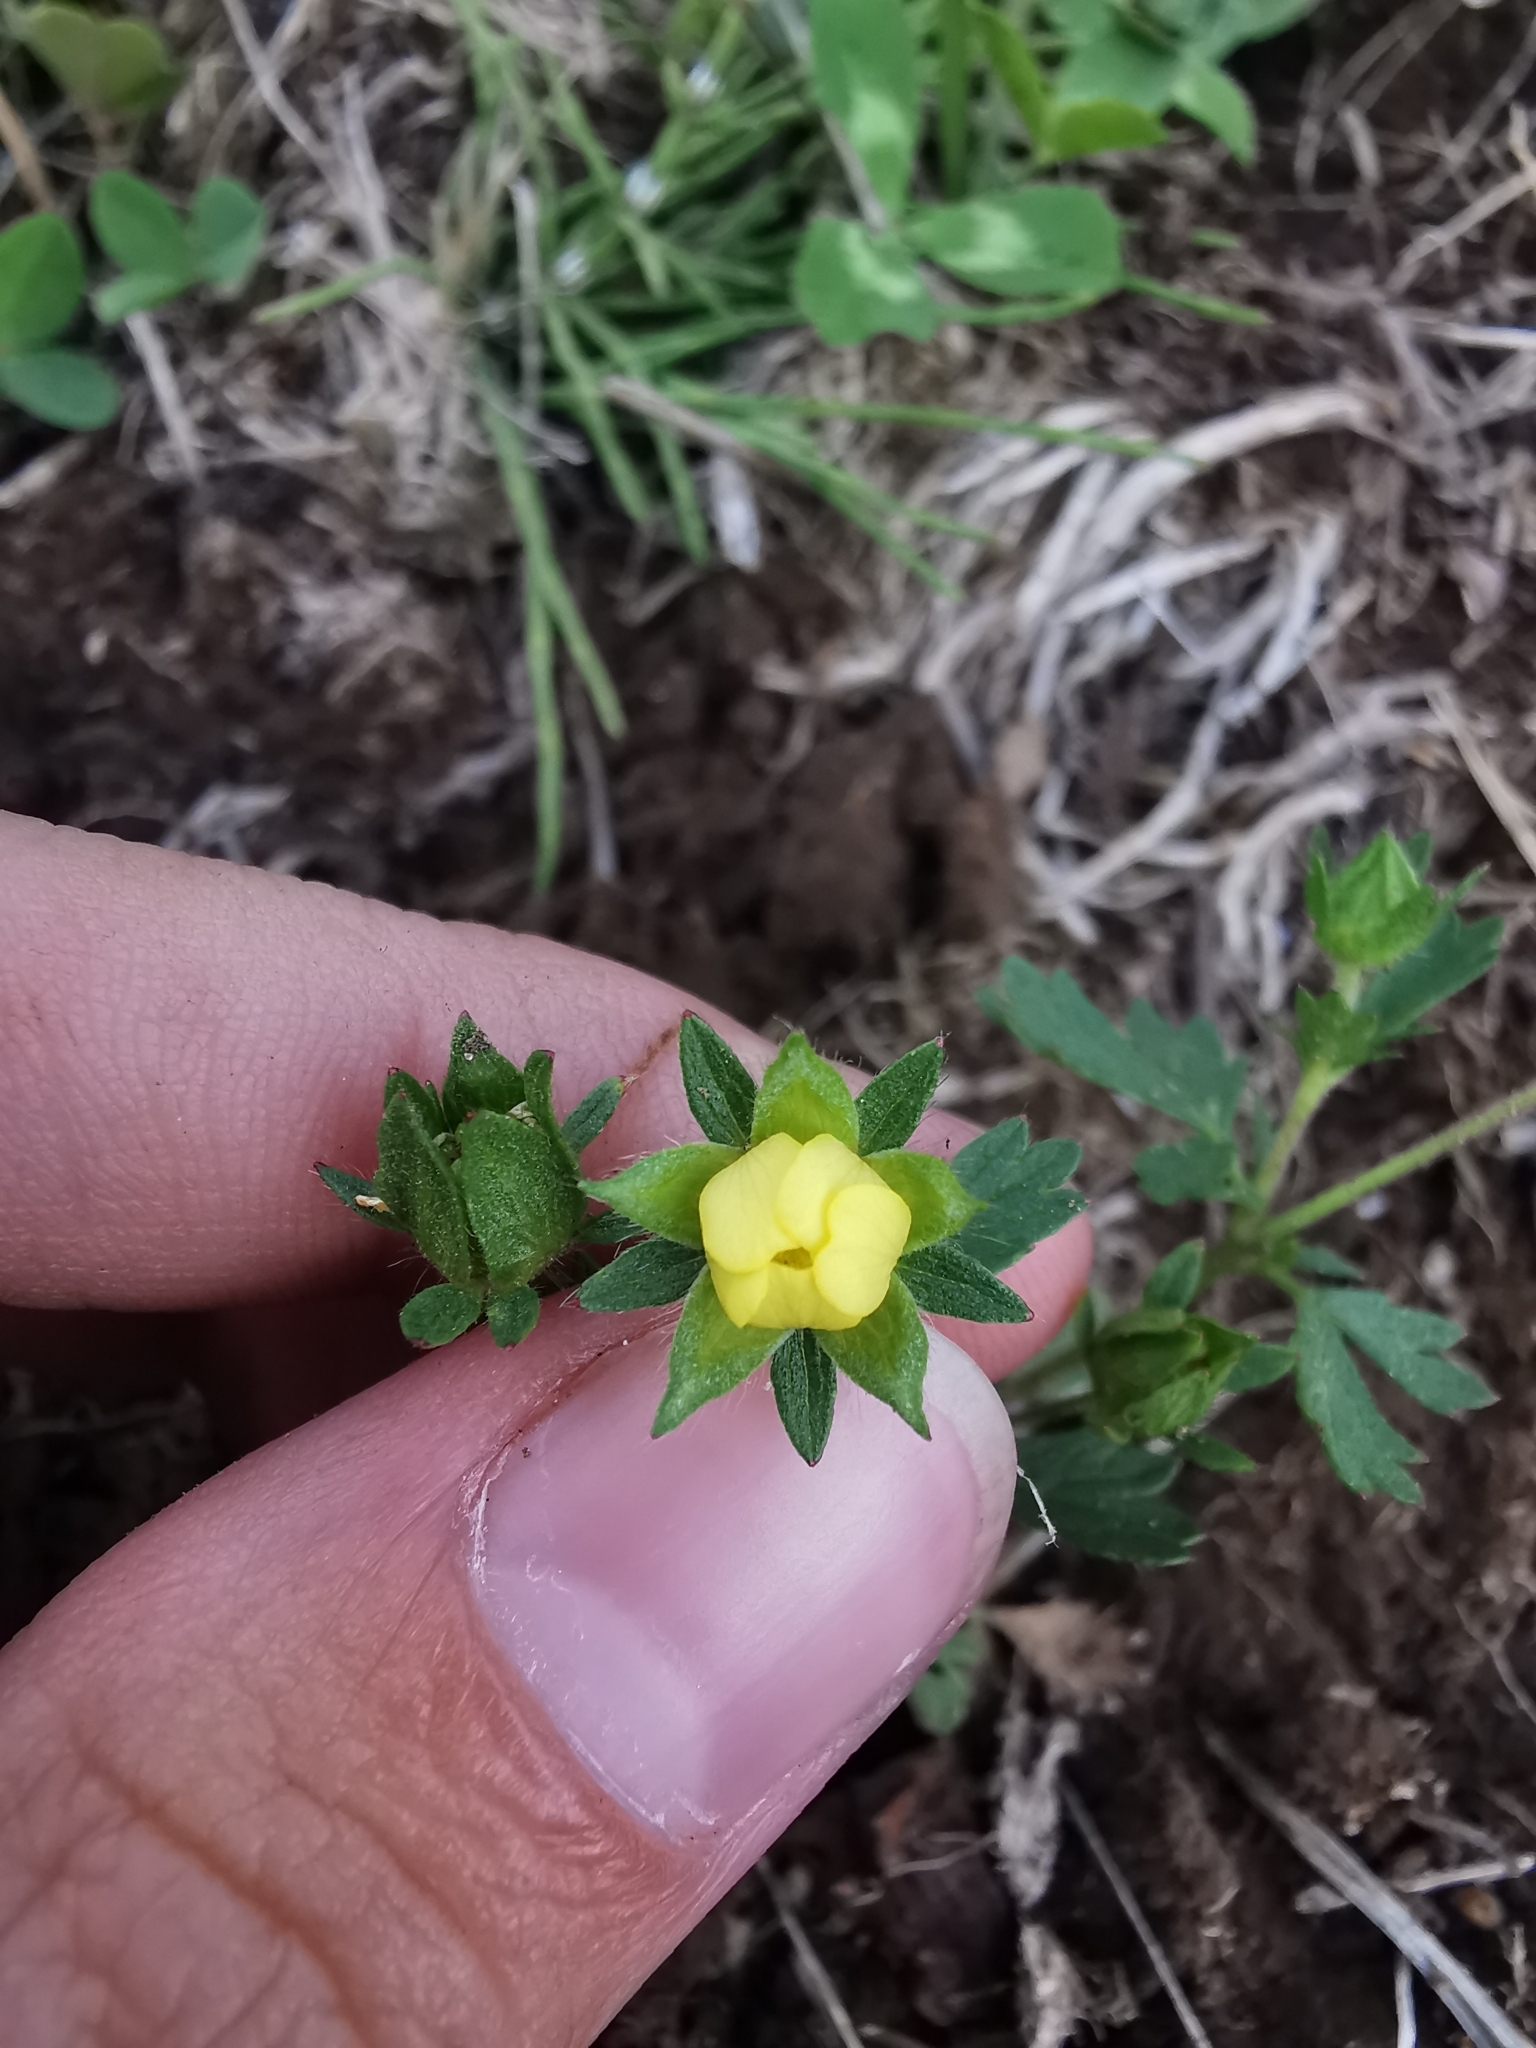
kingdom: Plantae
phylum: Tracheophyta
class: Magnoliopsida
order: Rosales
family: Rosaceae
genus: Potentilla
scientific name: Potentilla norvegica
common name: Ternate-leaved cinquefoil
